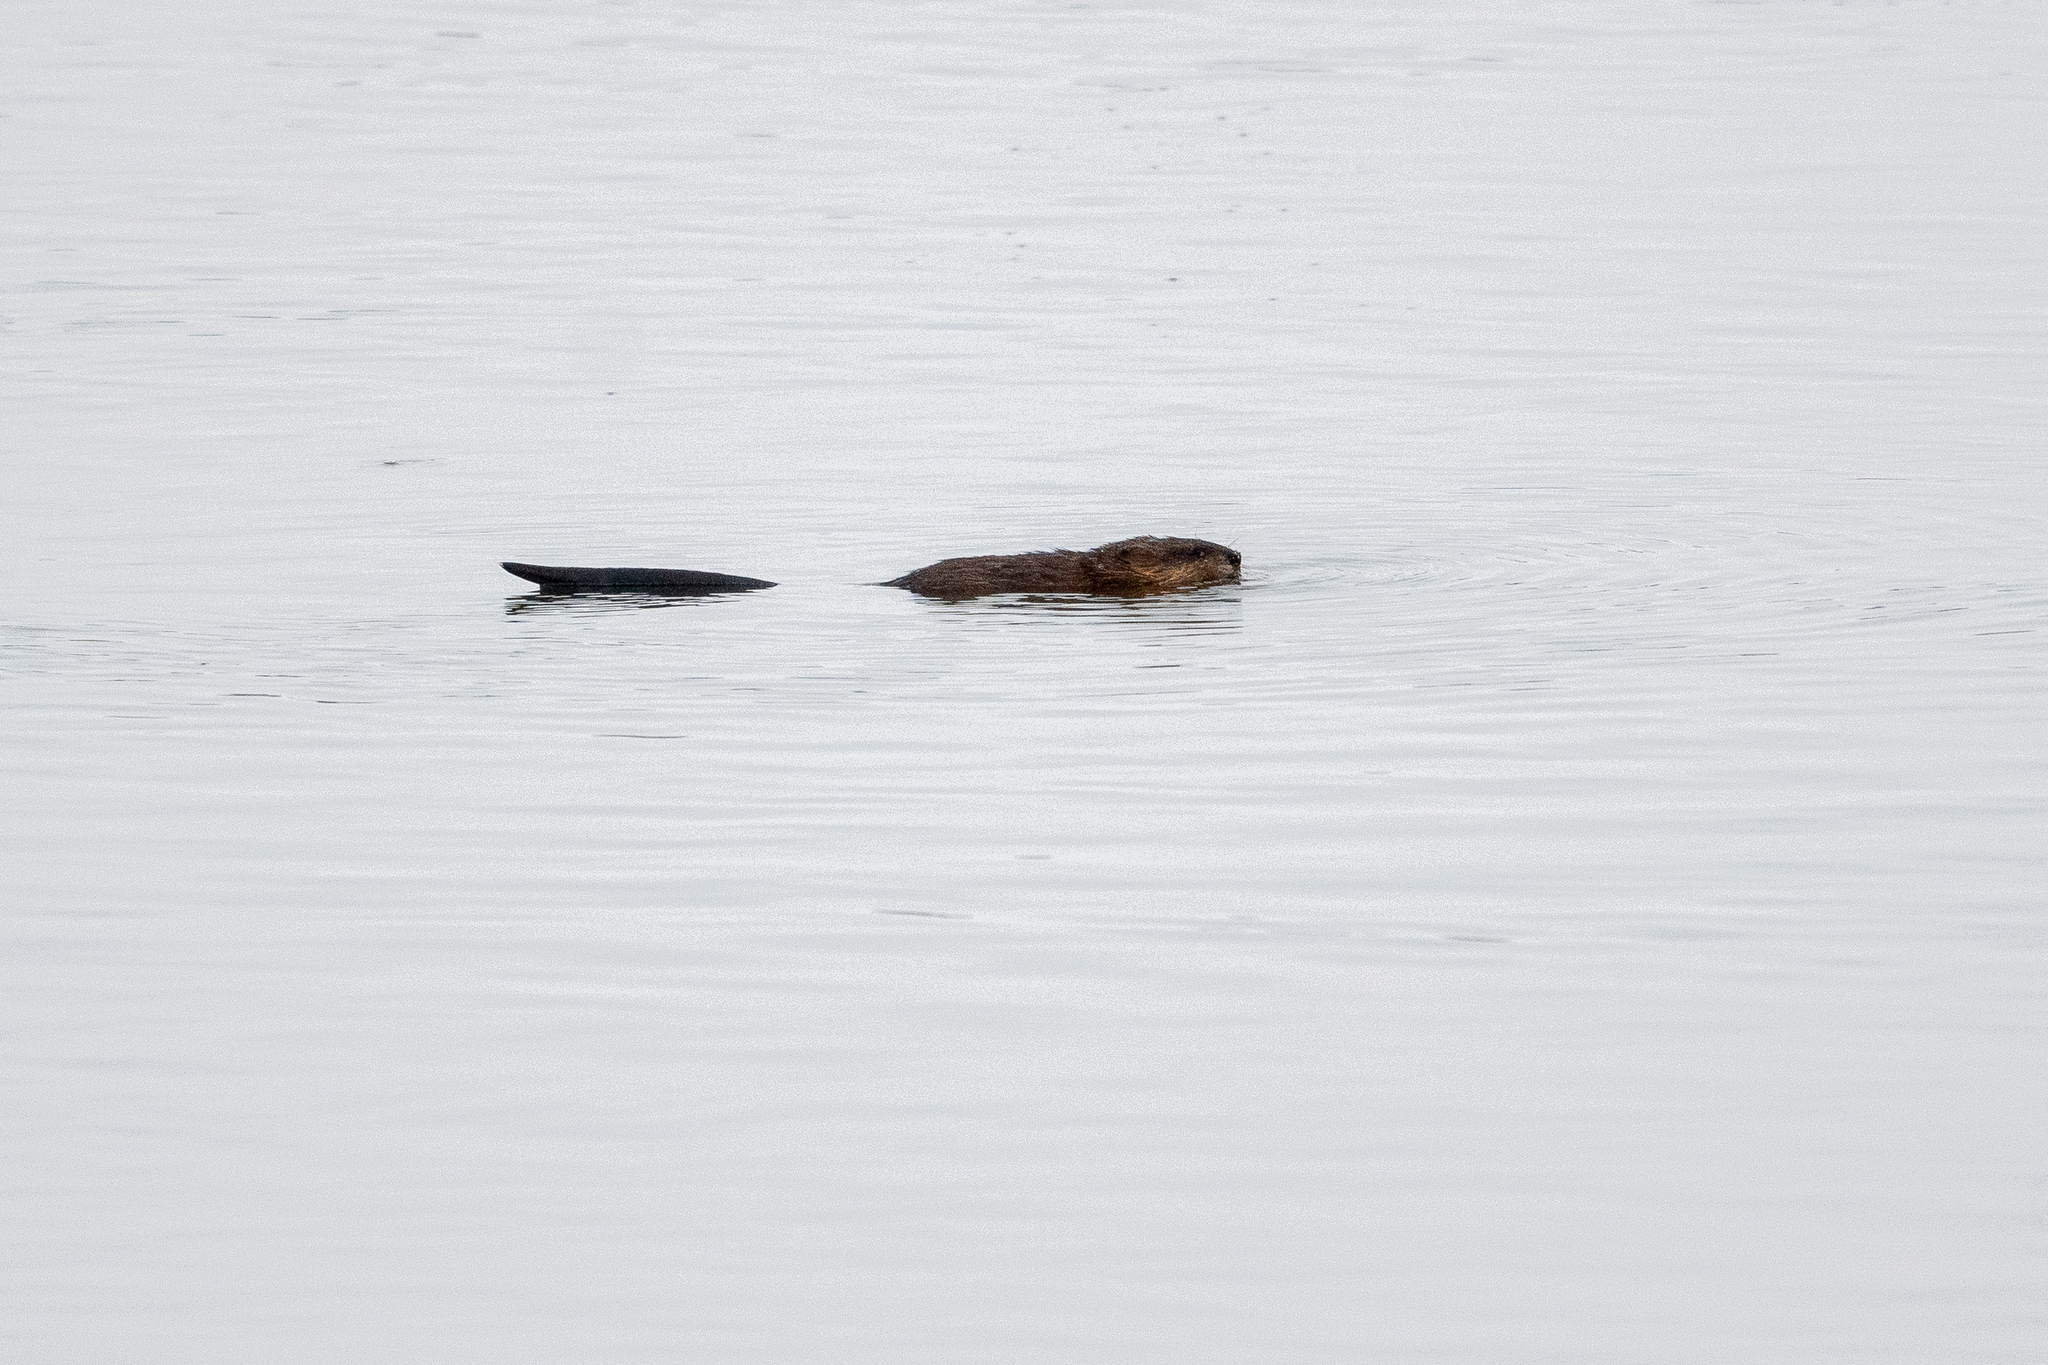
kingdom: Animalia
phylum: Chordata
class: Mammalia
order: Rodentia
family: Cricetidae
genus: Ondatra
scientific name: Ondatra zibethicus
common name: Muskrat
